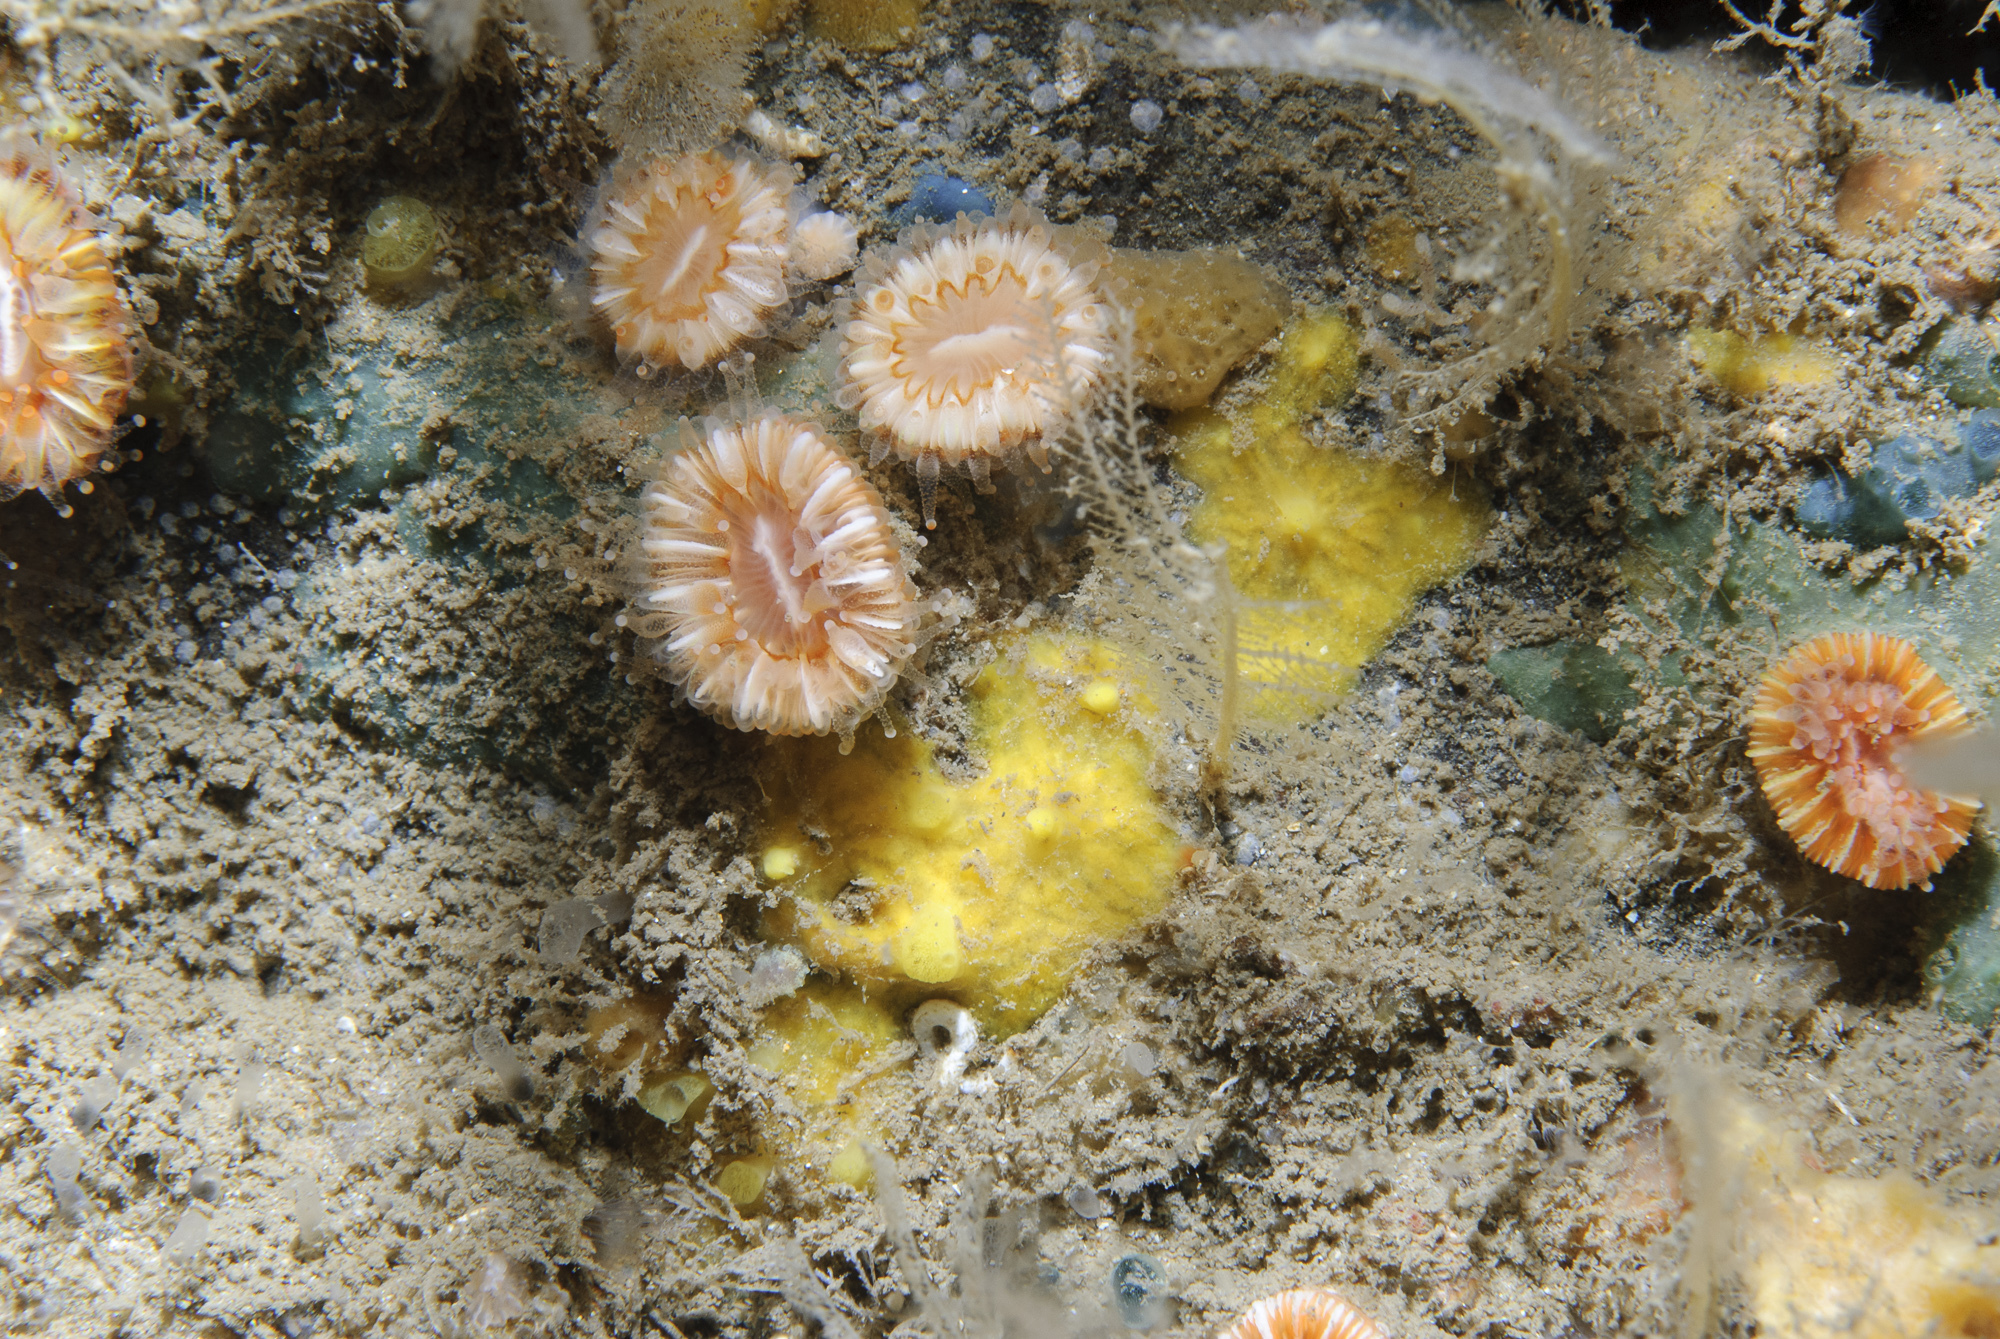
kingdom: Animalia
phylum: Porifera
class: Demospongiae
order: Poecilosclerida
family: Hymedesmiidae
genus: Hymedesmia
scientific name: Hymedesmia rathlinia
